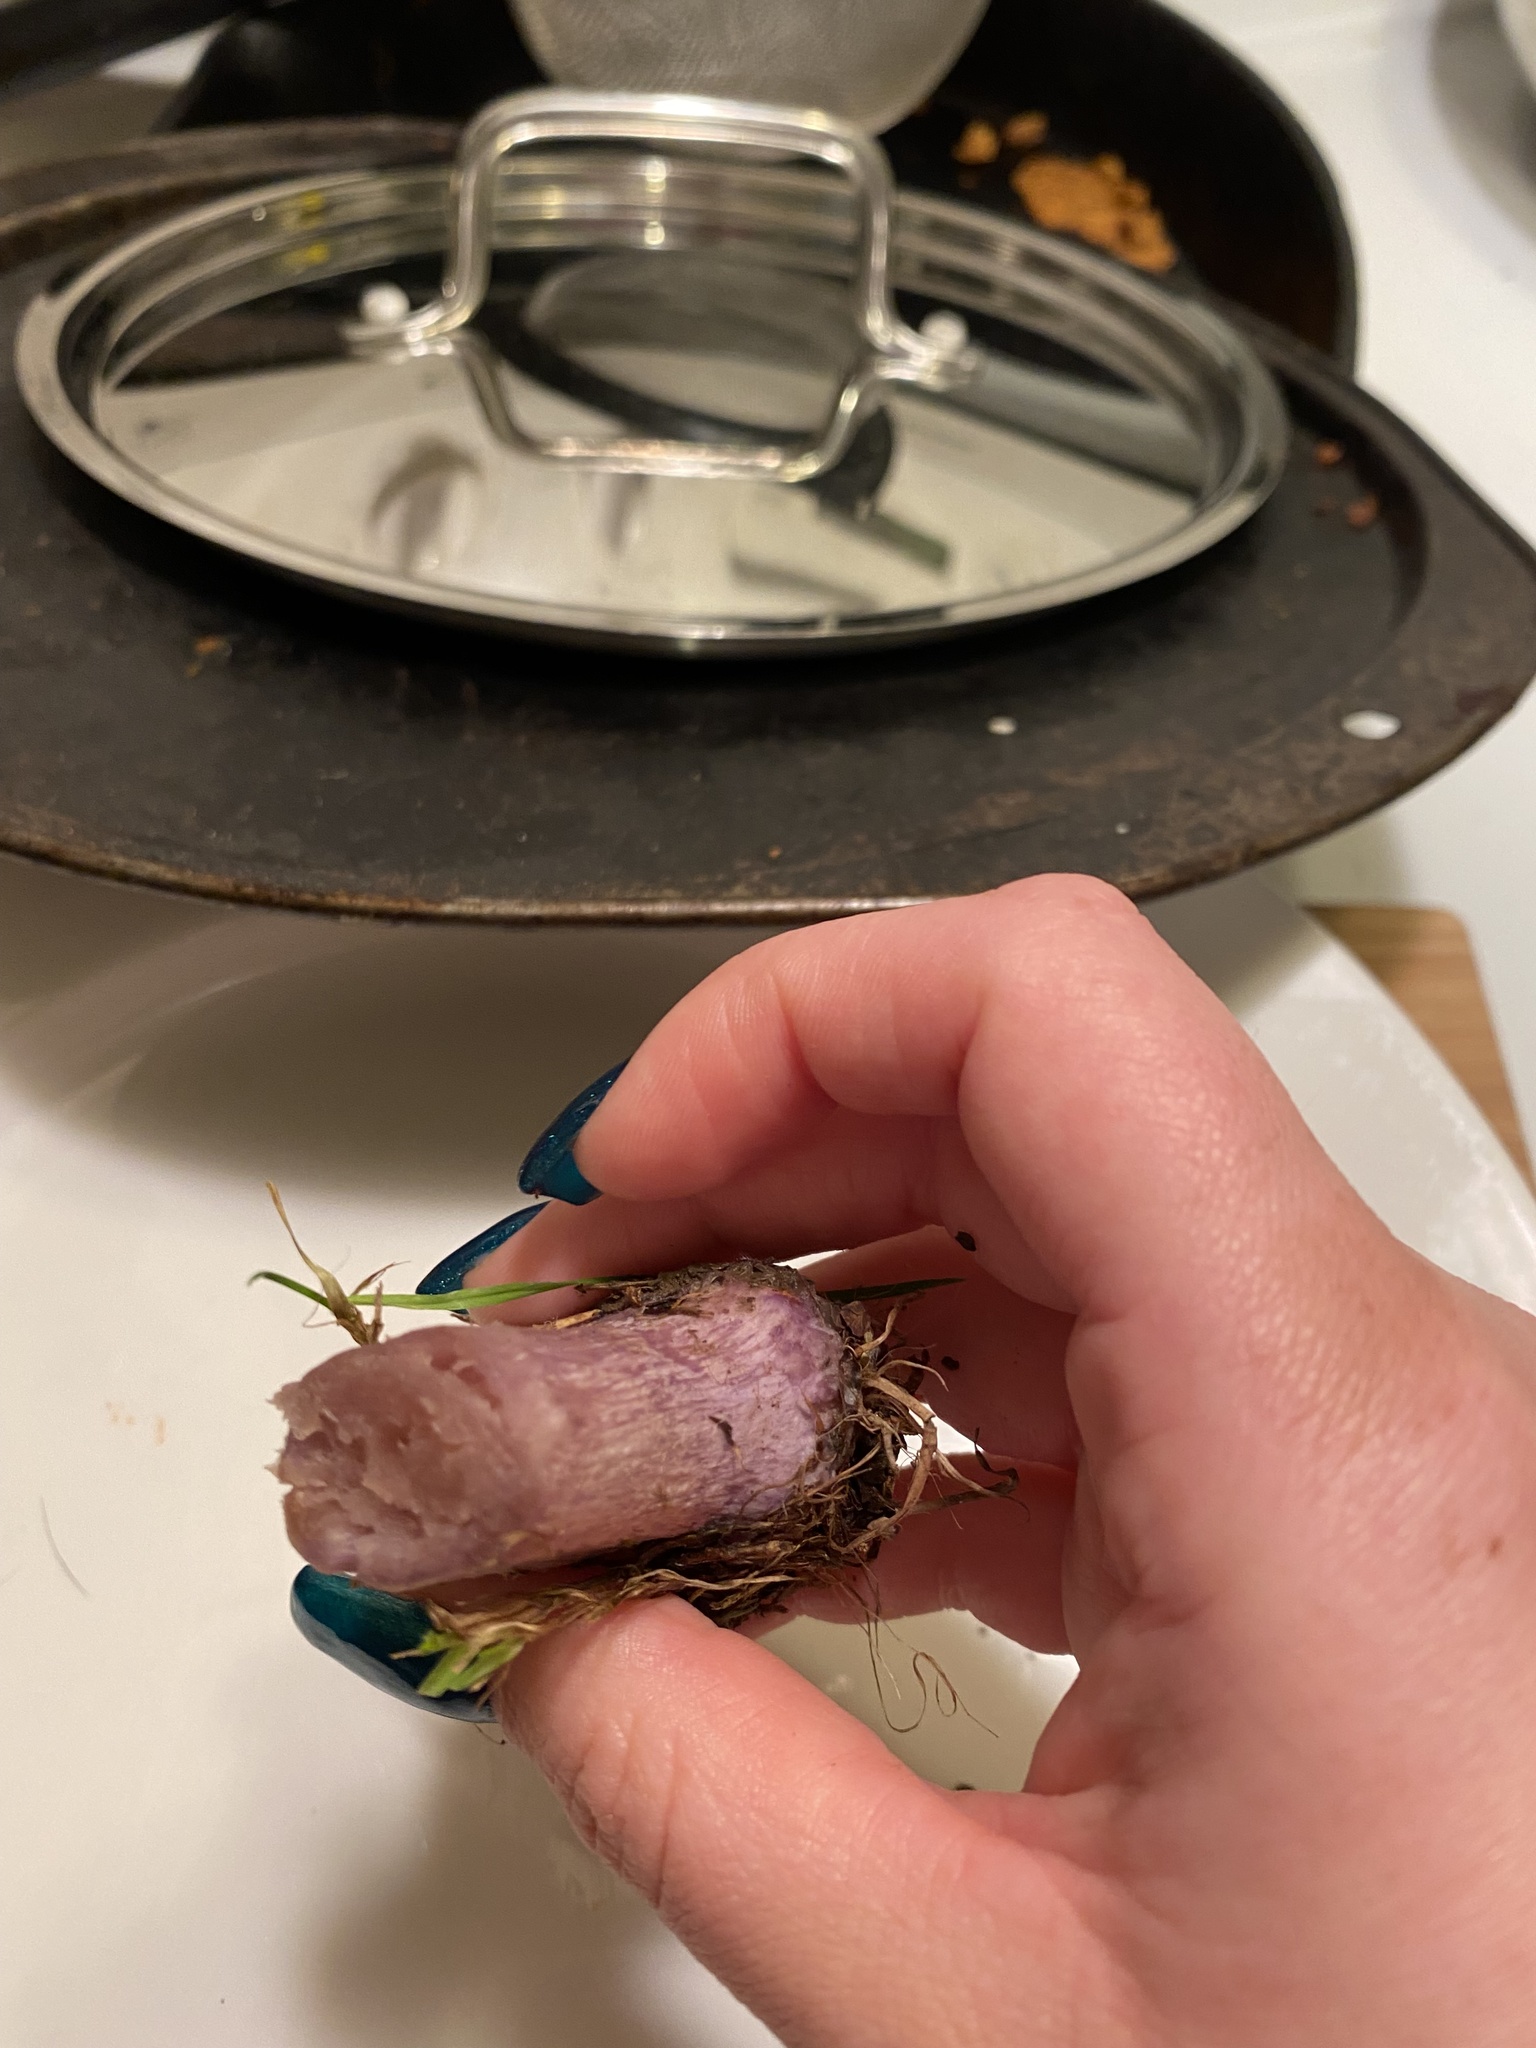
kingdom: Fungi
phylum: Basidiomycota
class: Agaricomycetes
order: Agaricales
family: Tricholomataceae
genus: Collybia
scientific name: Collybia
